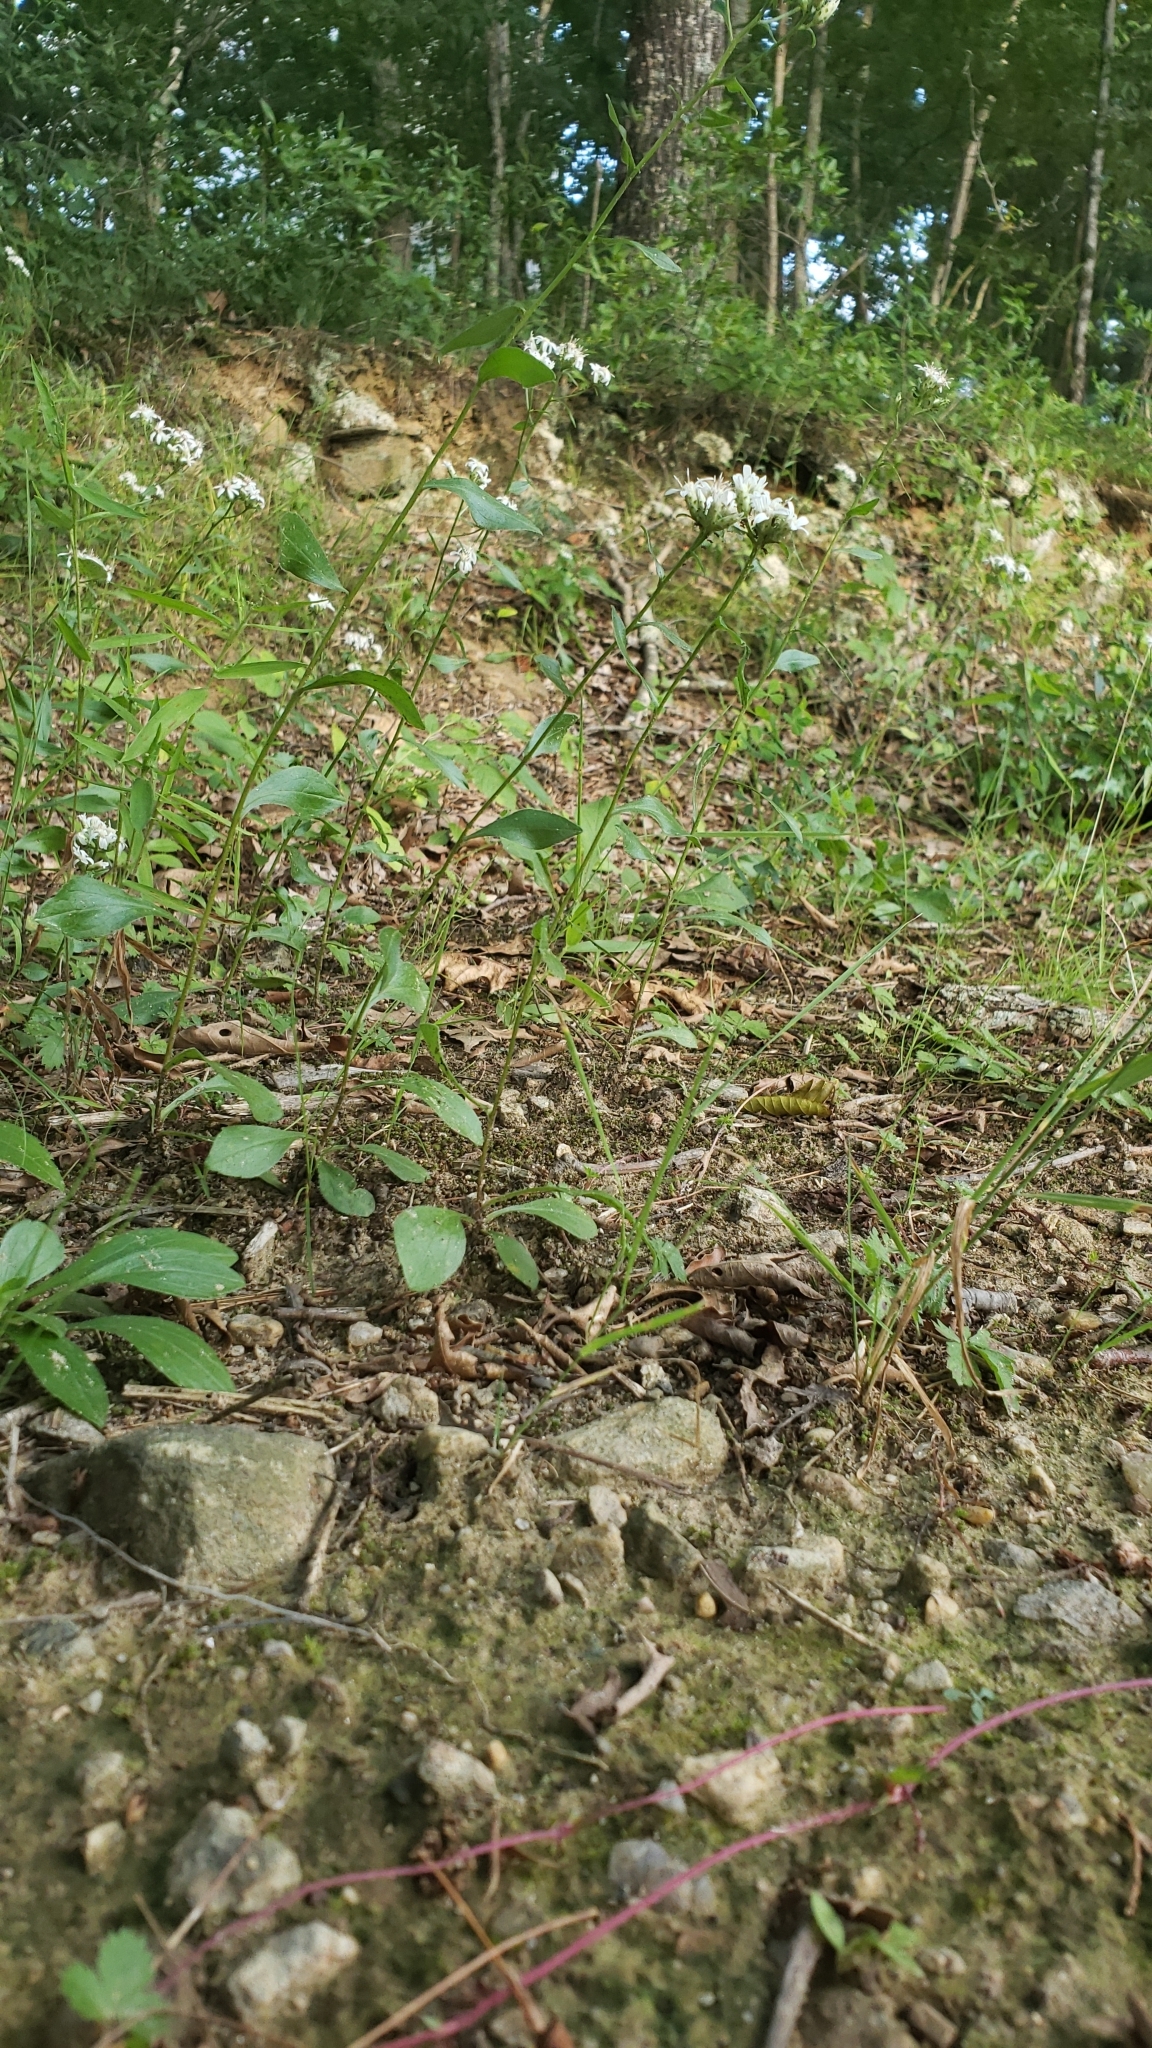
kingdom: Plantae
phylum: Tracheophyta
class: Magnoliopsida
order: Asterales
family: Asteraceae
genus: Sericocarpus
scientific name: Sericocarpus asteroides
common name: Toothed white-top aster
